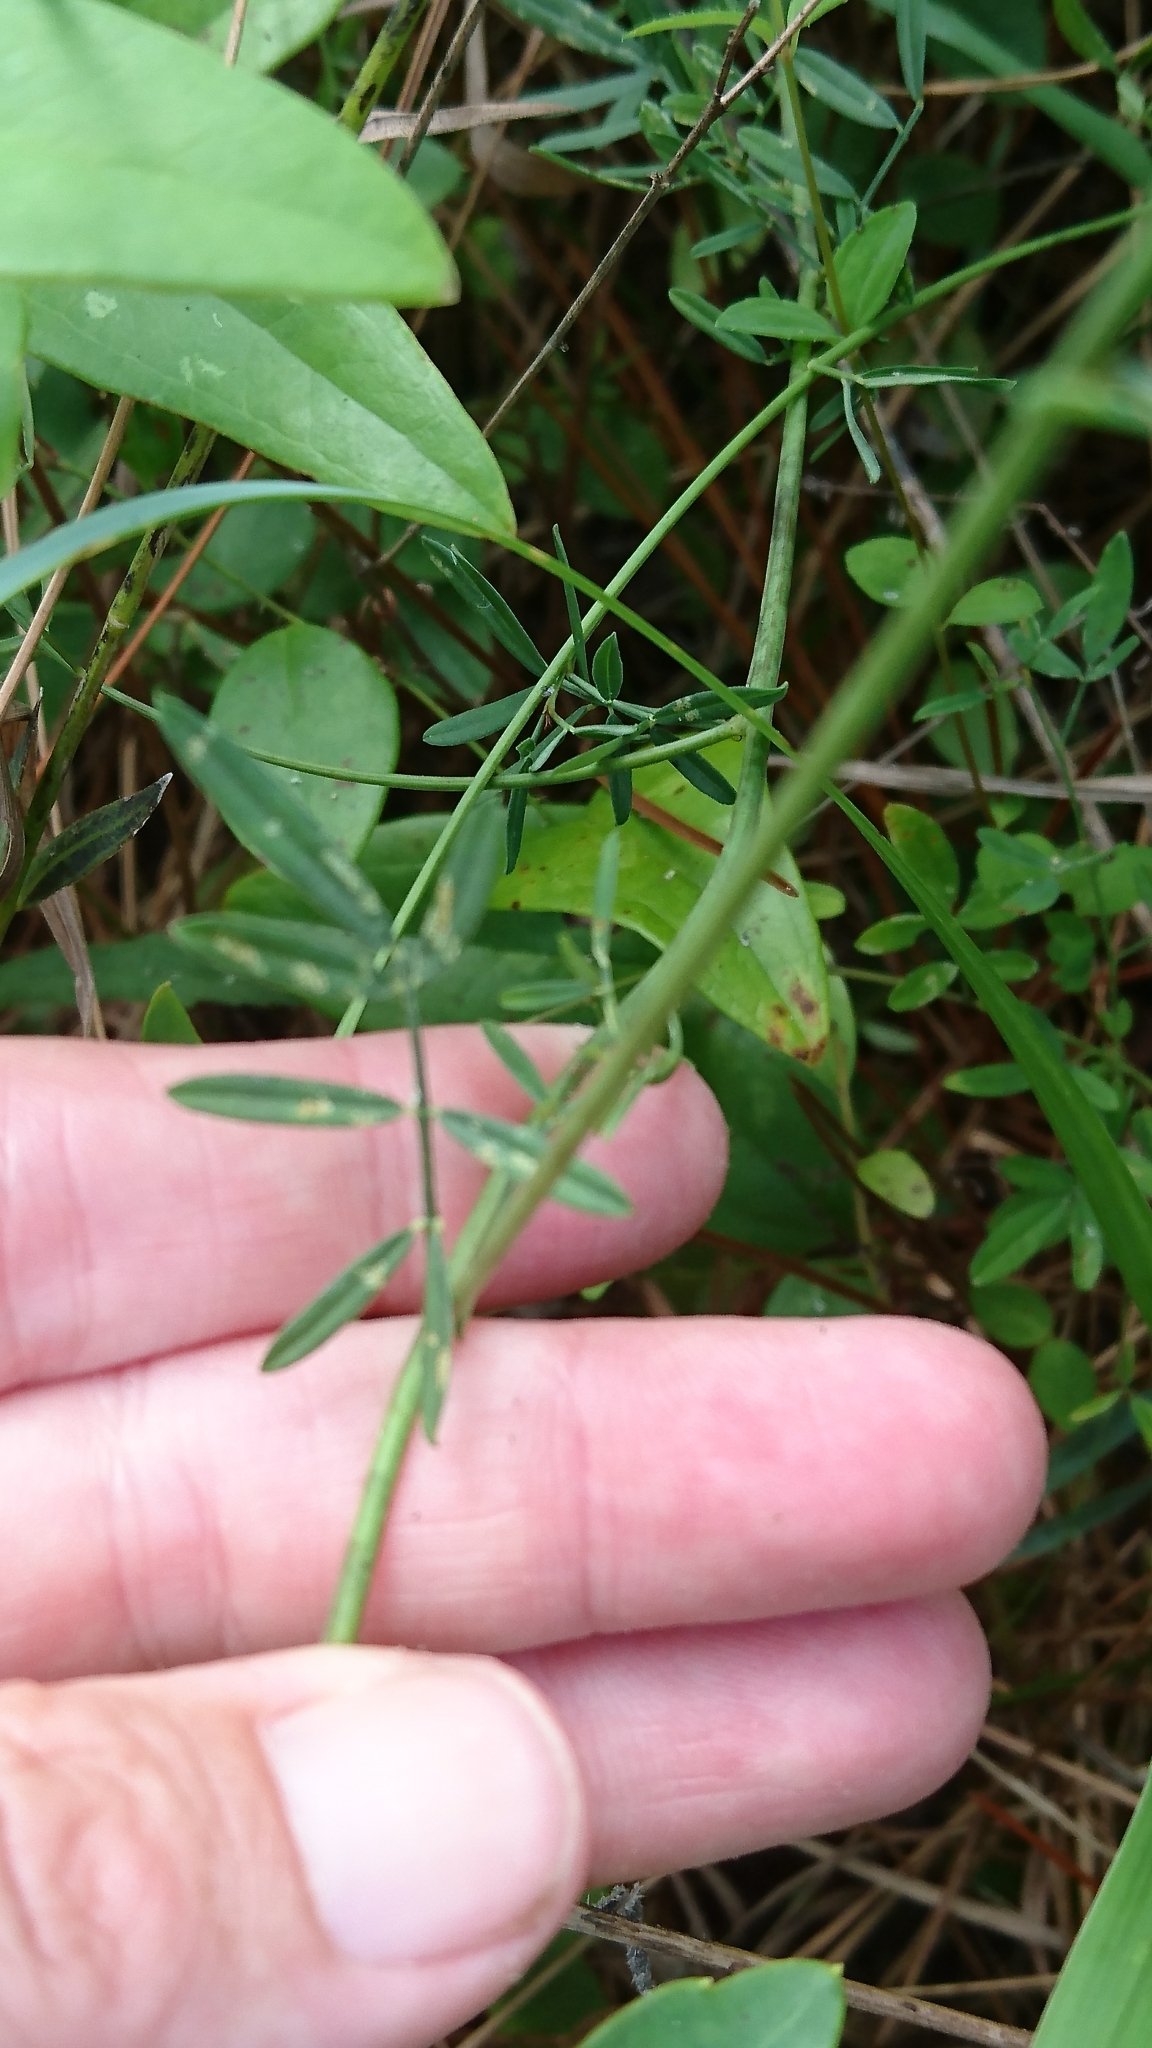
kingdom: Plantae
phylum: Tracheophyta
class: Magnoliopsida
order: Fabales
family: Fabaceae
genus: Dalea
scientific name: Dalea mountjoyae
